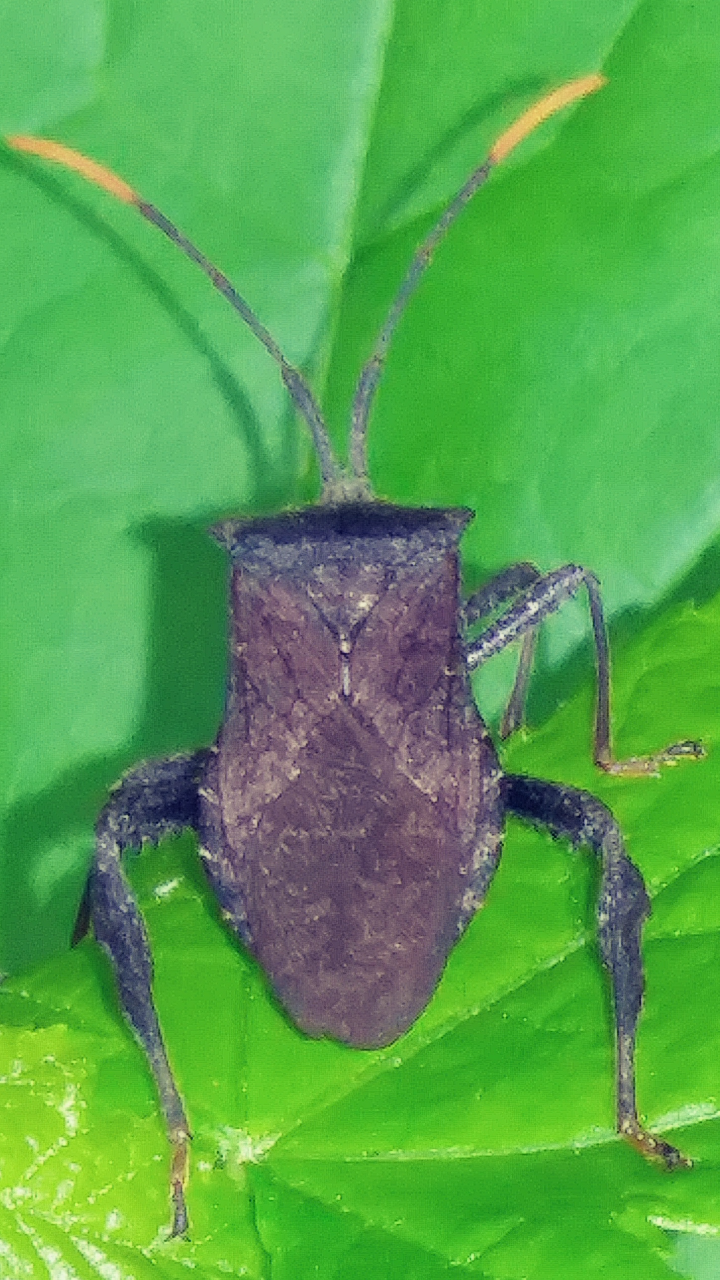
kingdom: Animalia
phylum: Arthropoda
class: Insecta
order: Hemiptera
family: Coreidae
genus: Acanthocephala
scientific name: Acanthocephala terminalis
